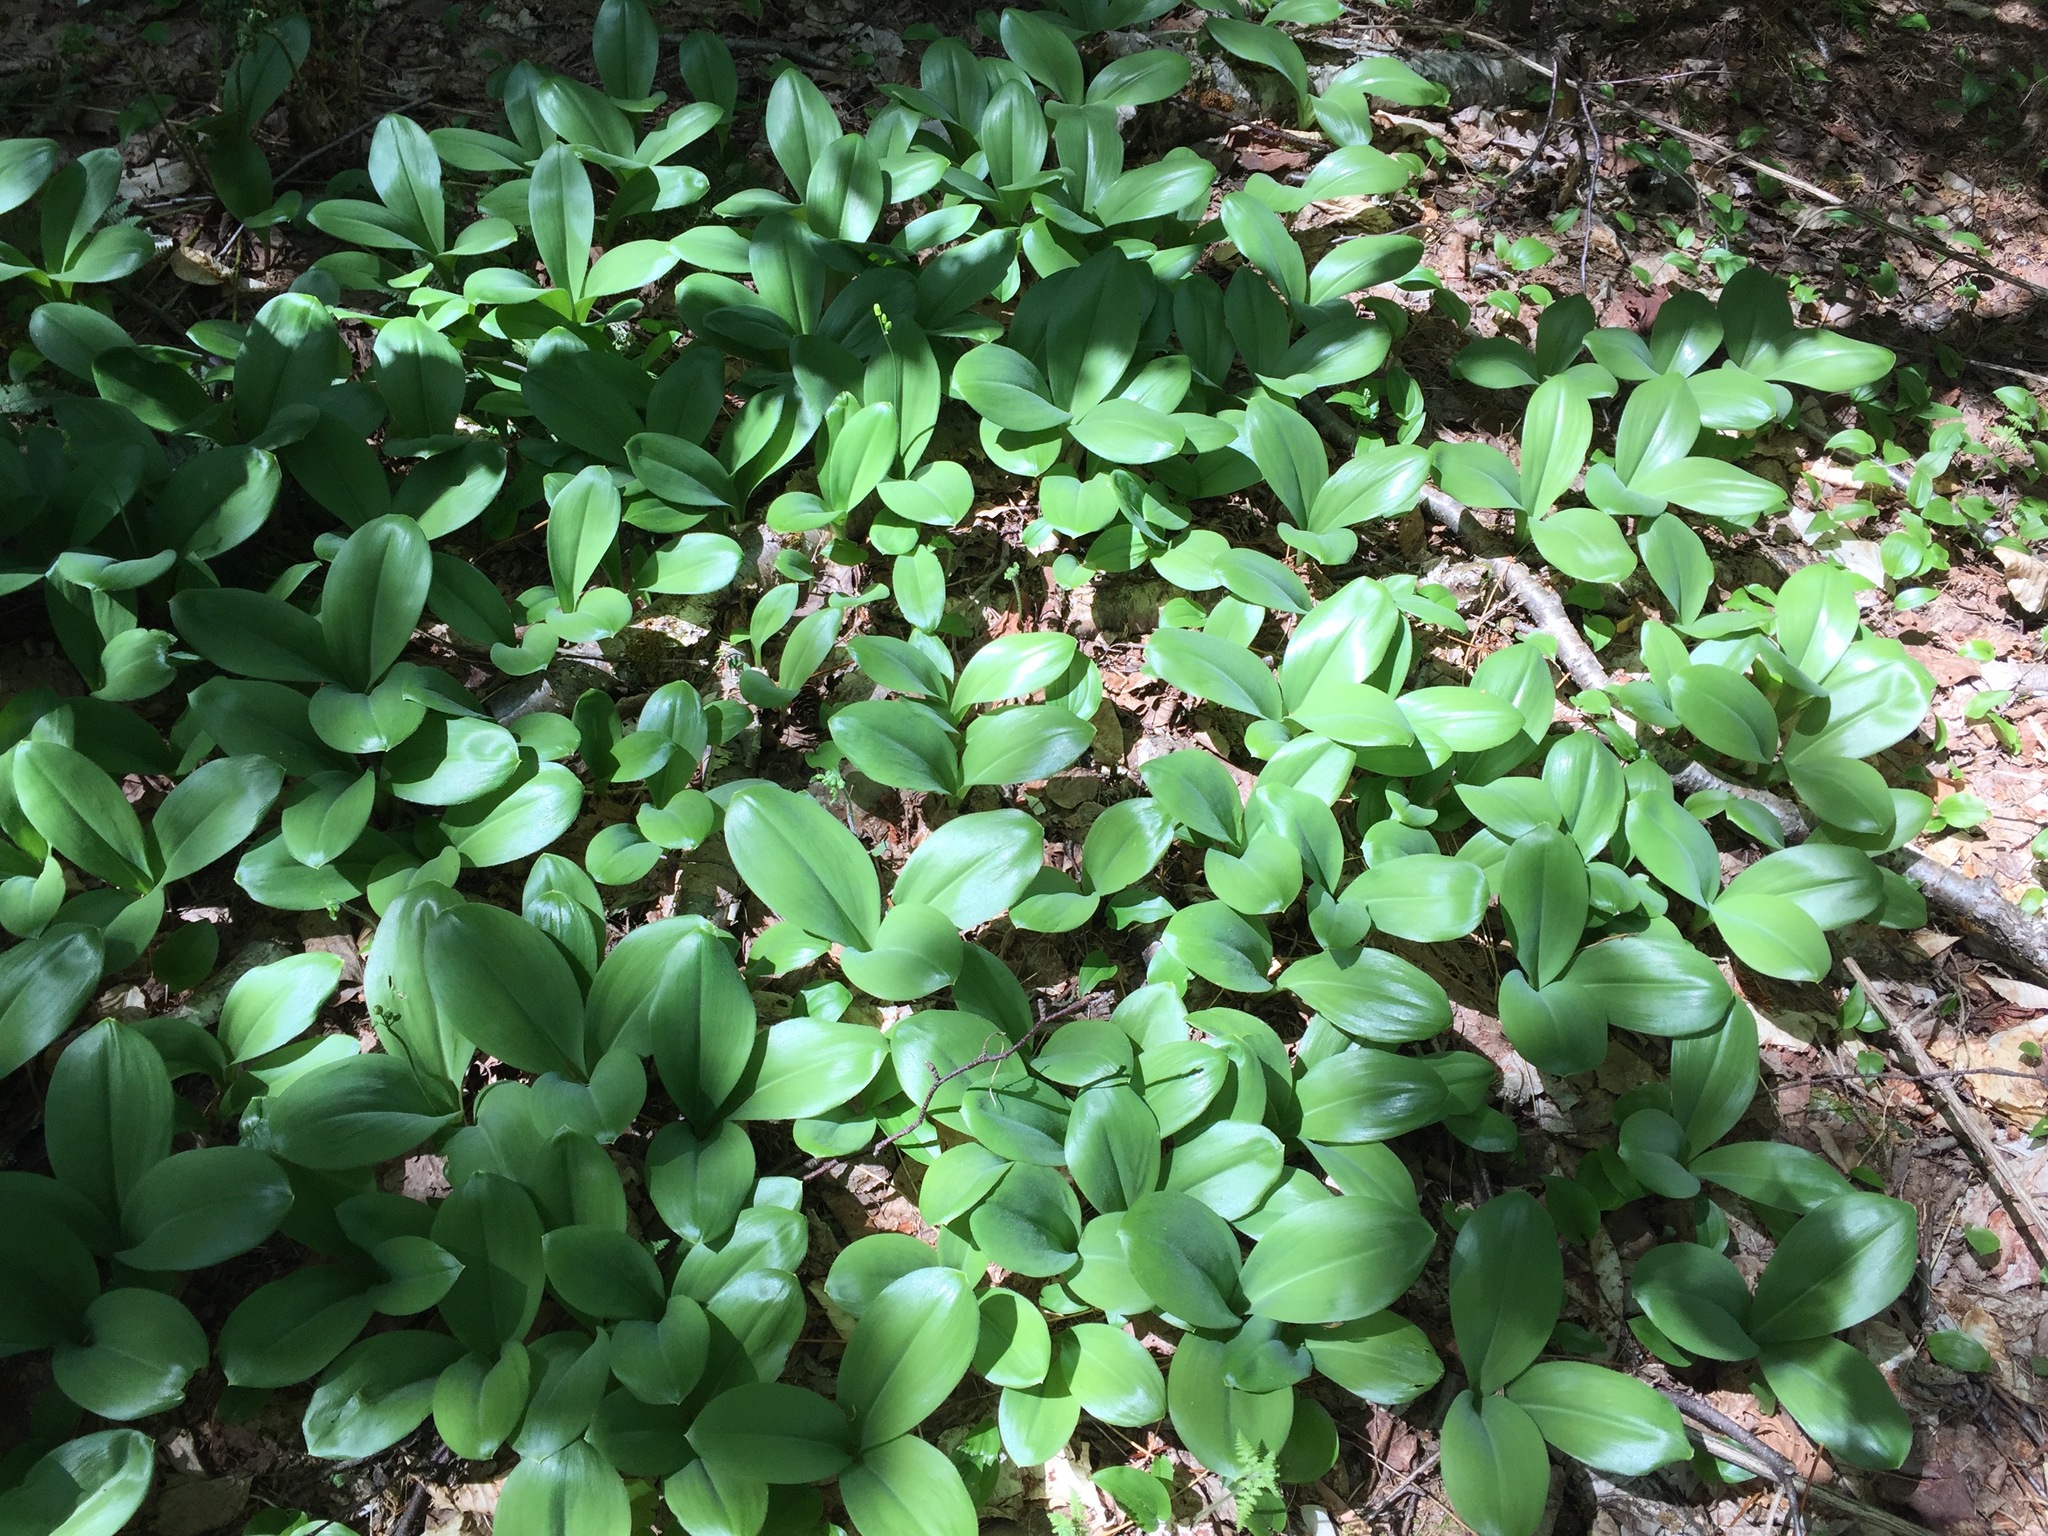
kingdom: Plantae
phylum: Tracheophyta
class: Liliopsida
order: Liliales
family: Liliaceae
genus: Clintonia
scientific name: Clintonia borealis
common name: Yellow clintonia
